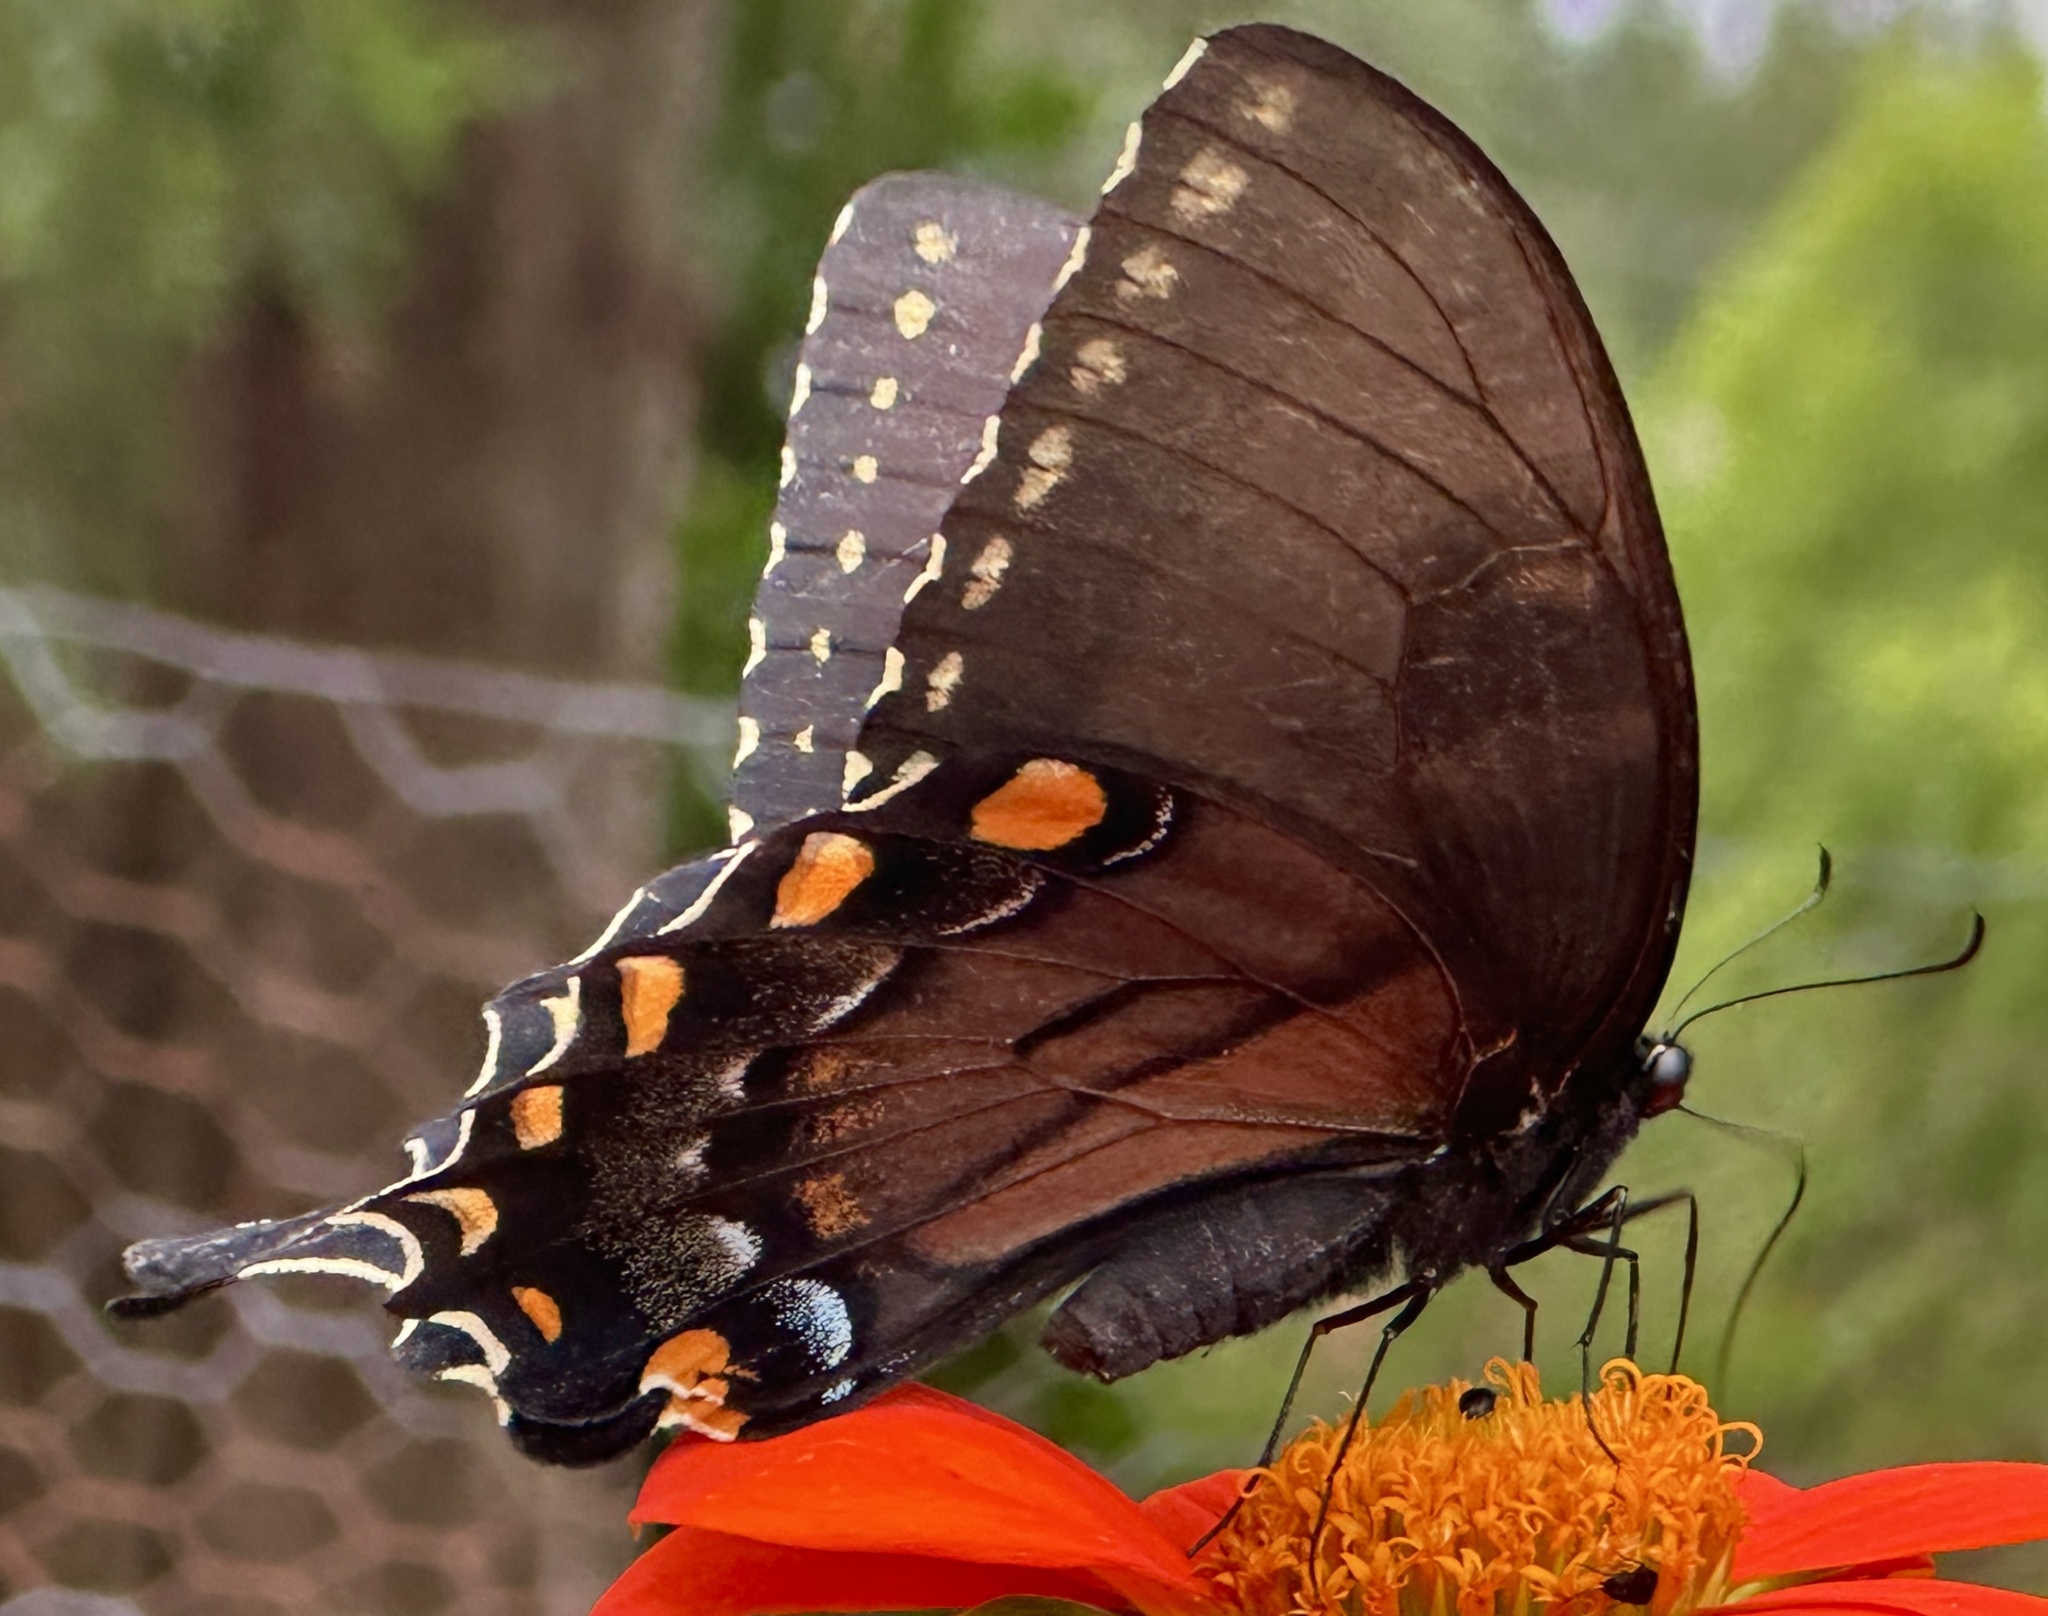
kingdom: Animalia
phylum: Arthropoda
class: Insecta
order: Lepidoptera
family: Papilionidae
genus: Papilio
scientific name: Papilio glaucus
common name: Tiger swallowtail
